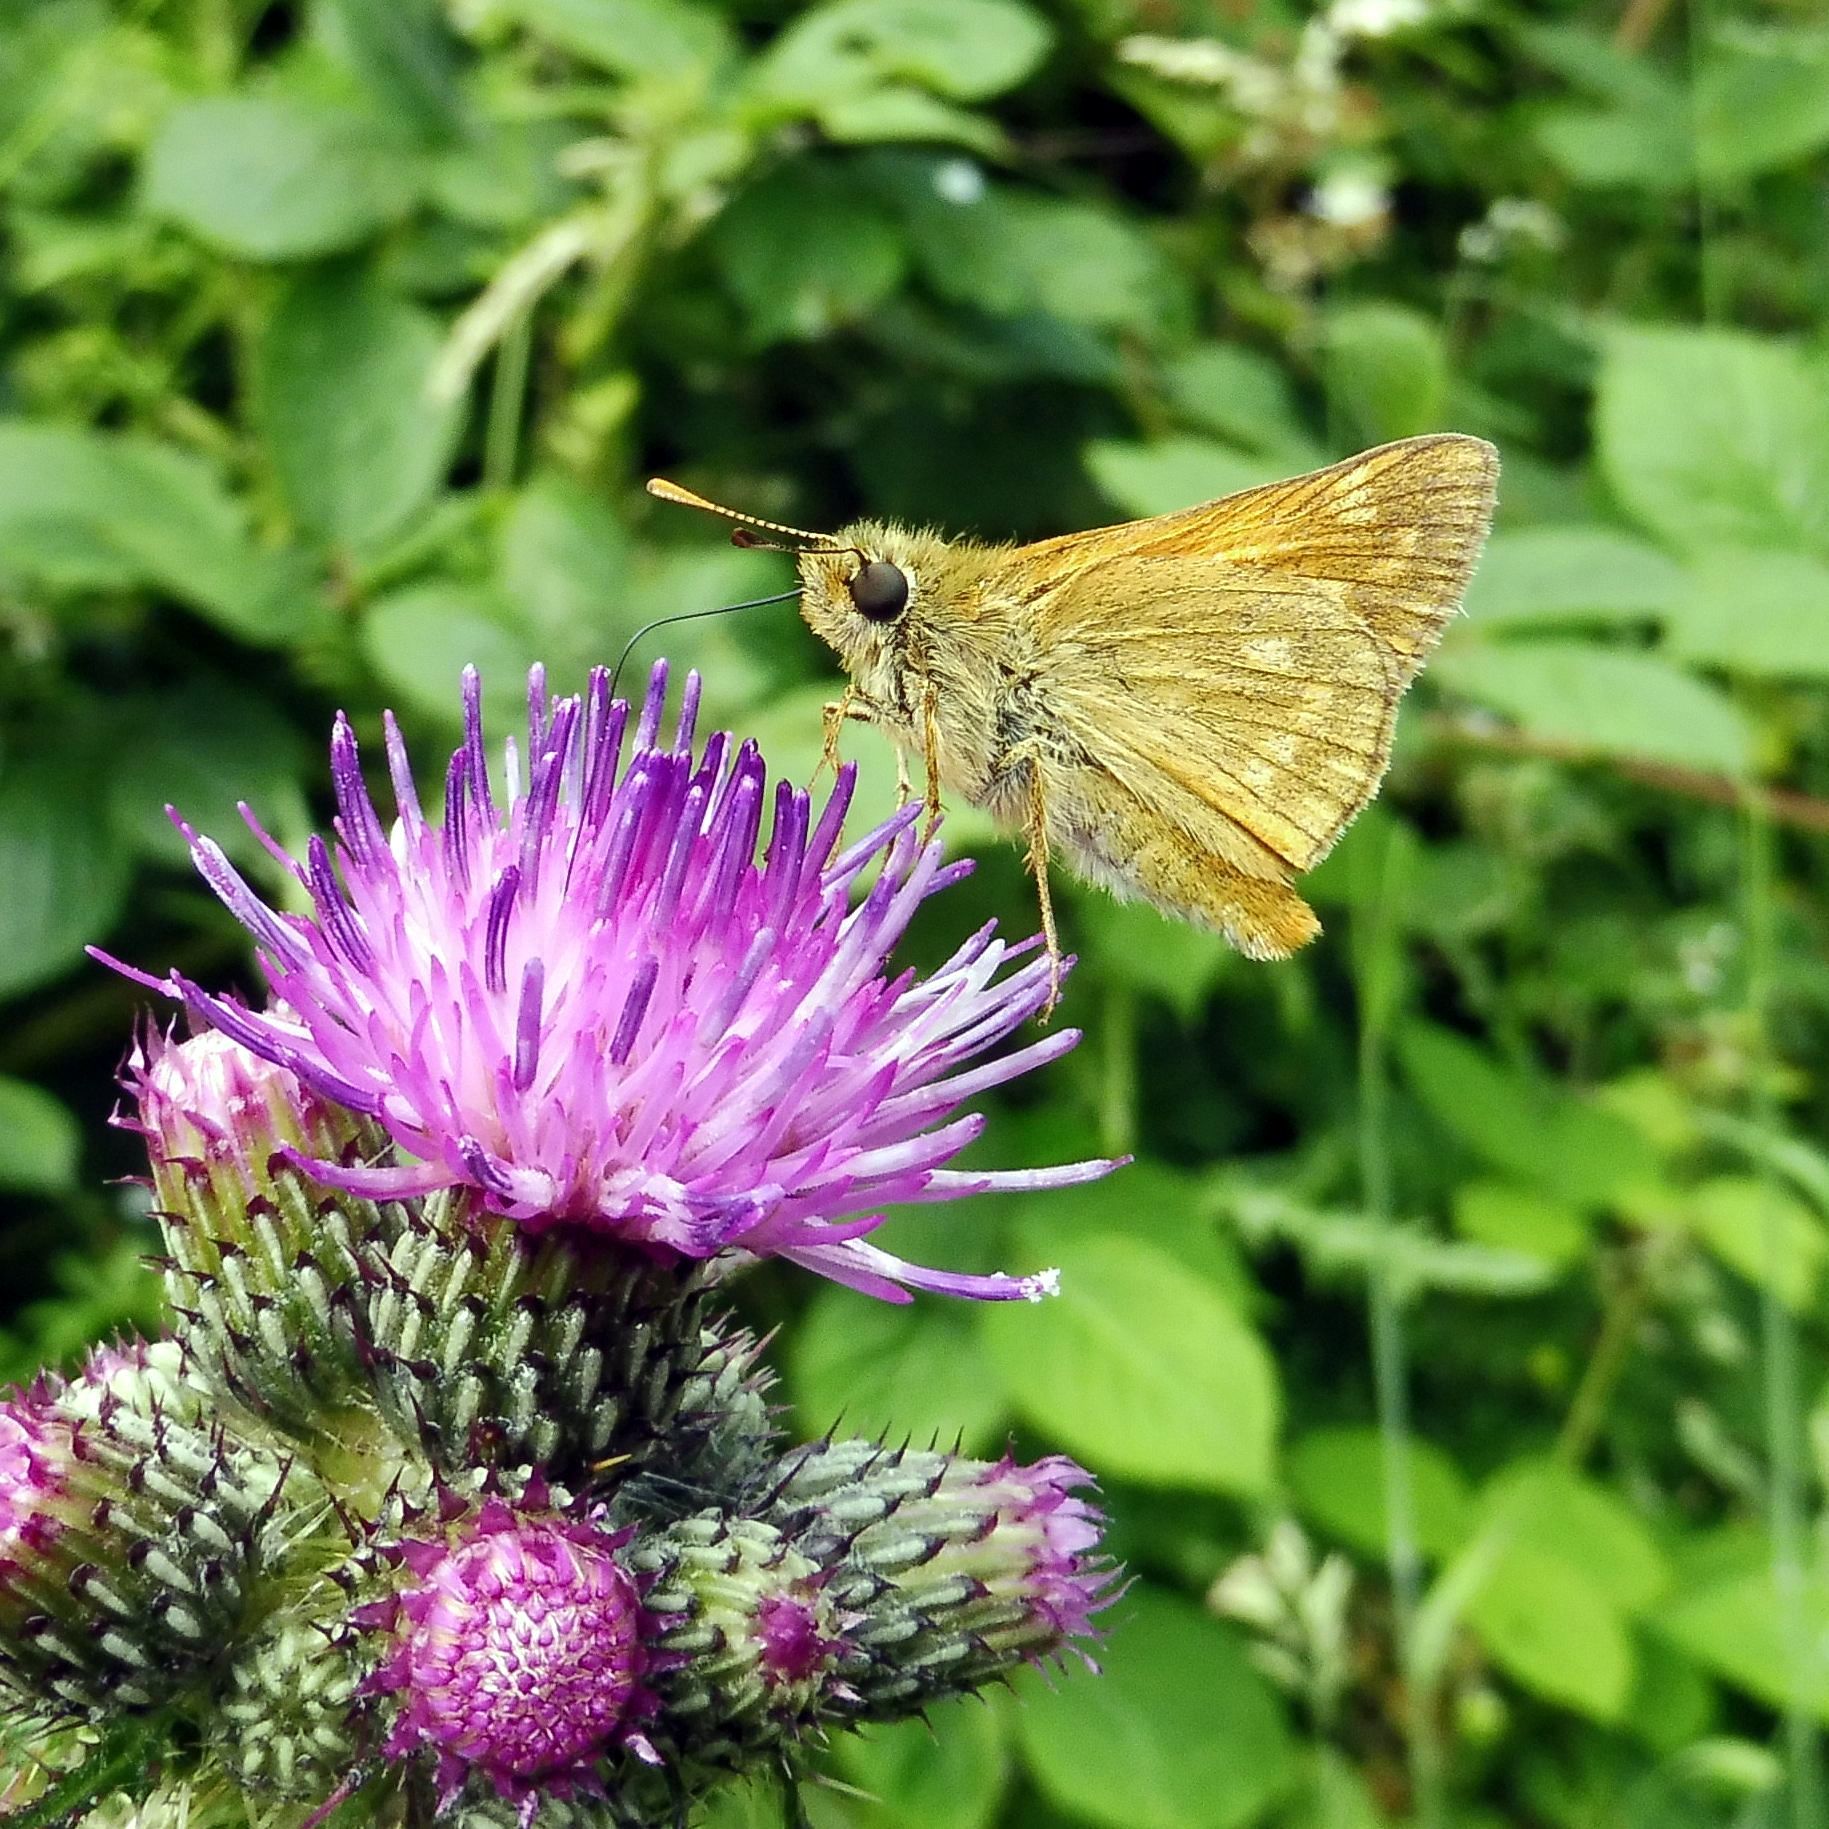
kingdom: Animalia
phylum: Arthropoda
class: Insecta
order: Lepidoptera
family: Hesperiidae
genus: Ochlodes
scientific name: Ochlodes venata
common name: Large skipper
